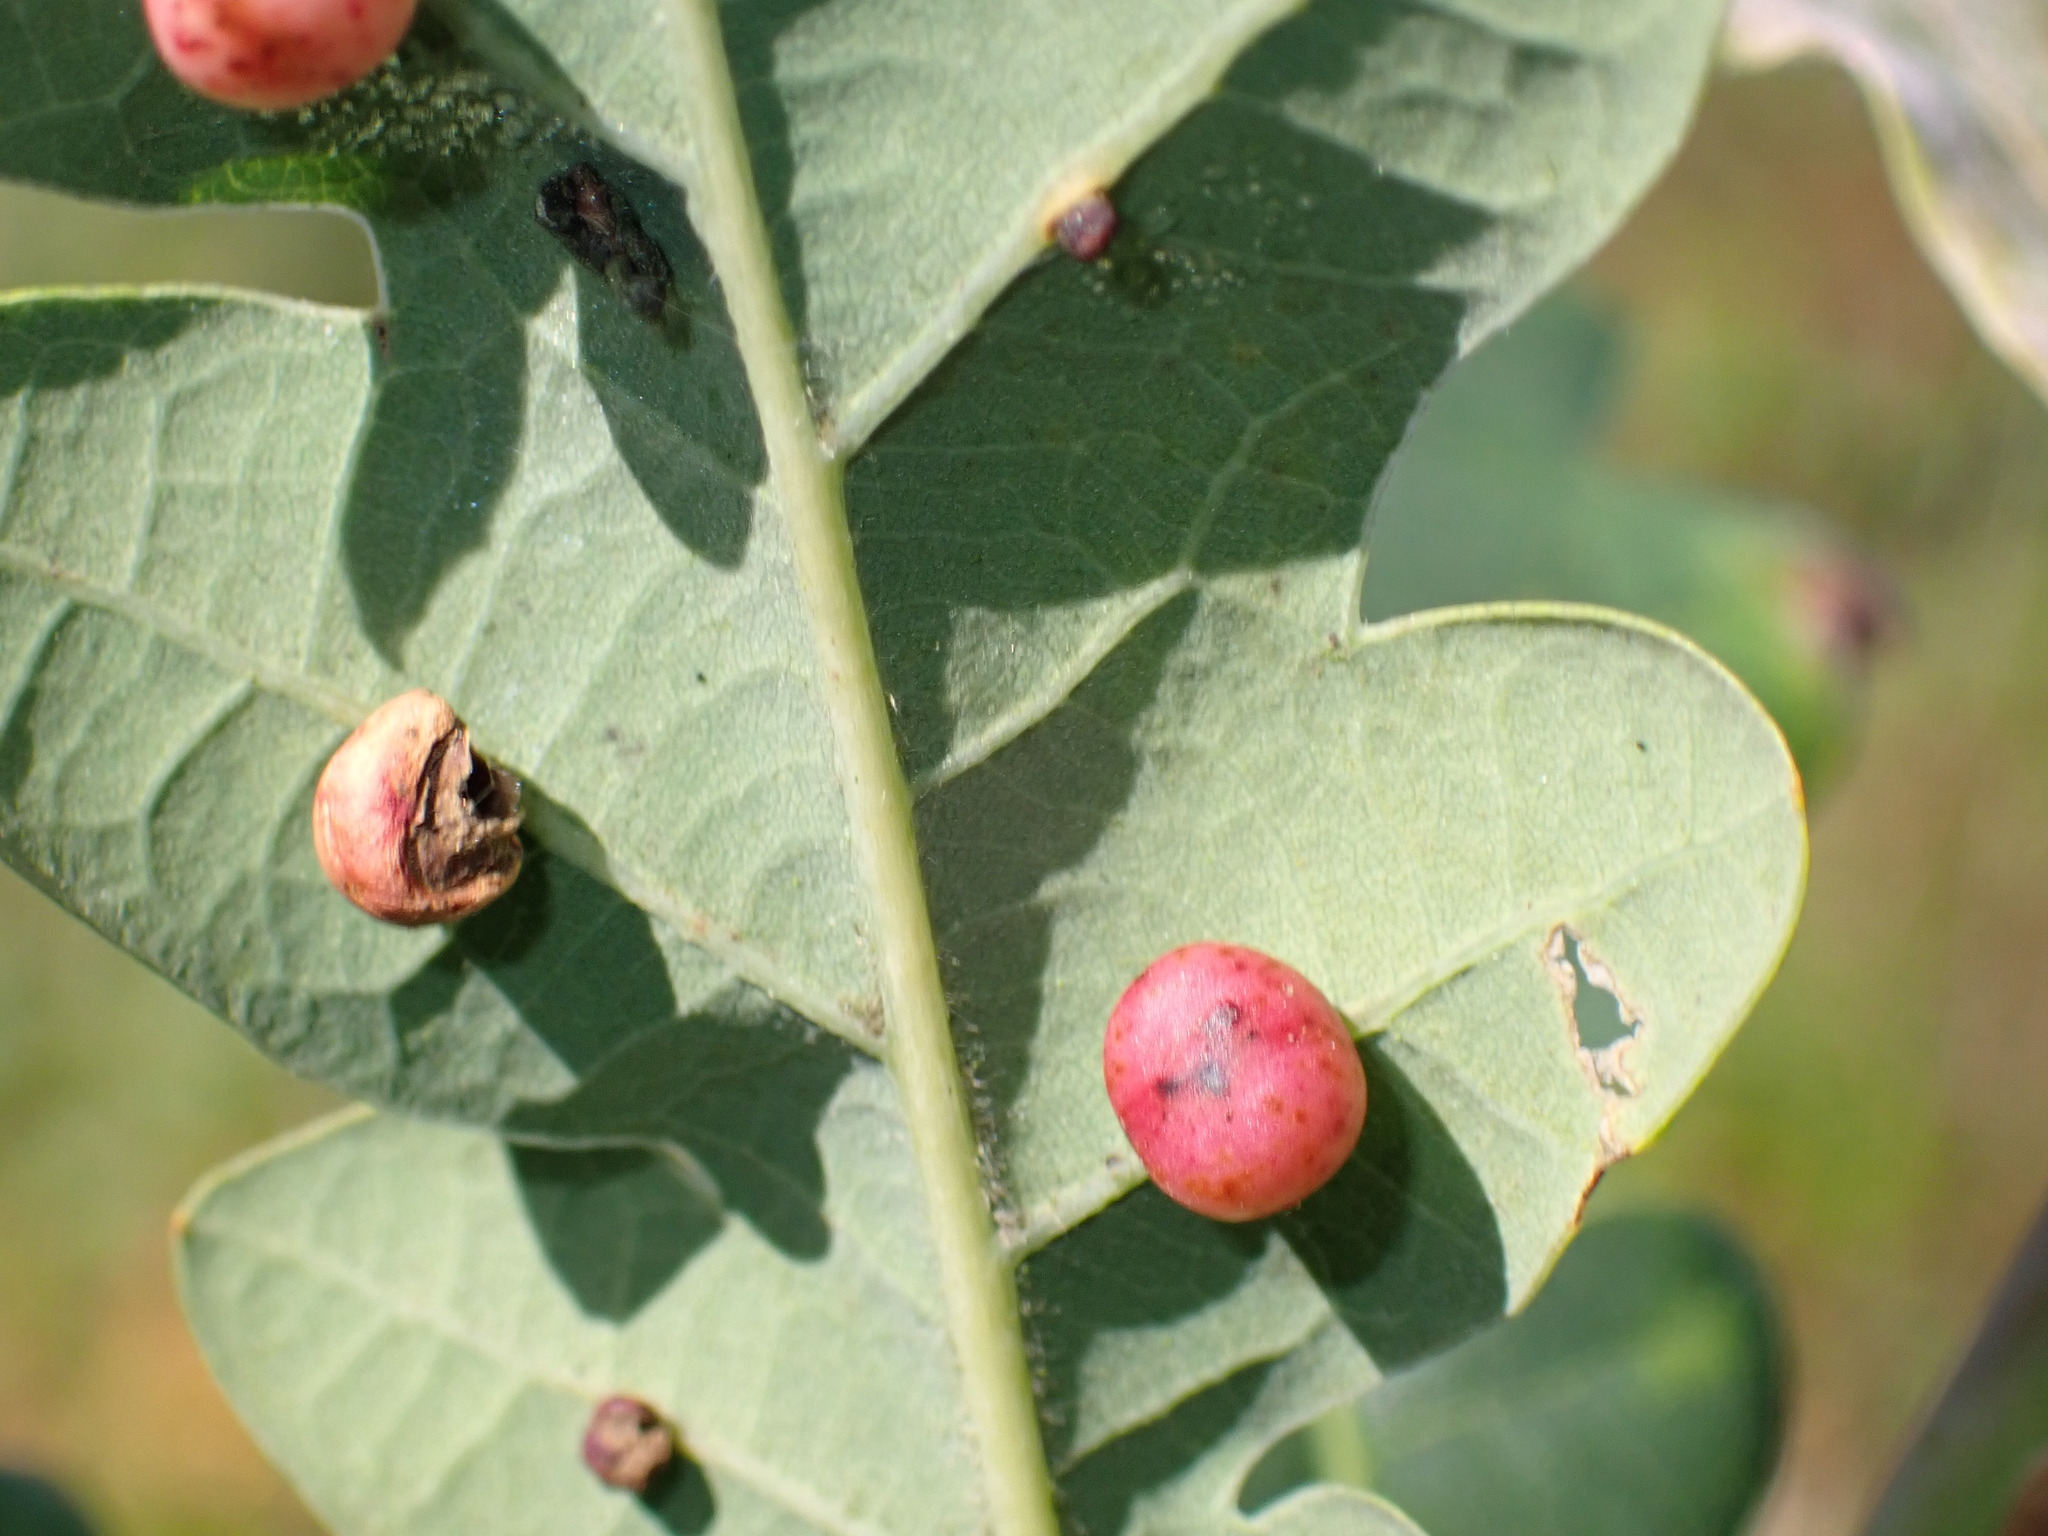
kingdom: Animalia
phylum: Arthropoda
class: Insecta
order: Hymenoptera
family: Cynipidae
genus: Cynips
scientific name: Cynips divisa
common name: Red currant gall
